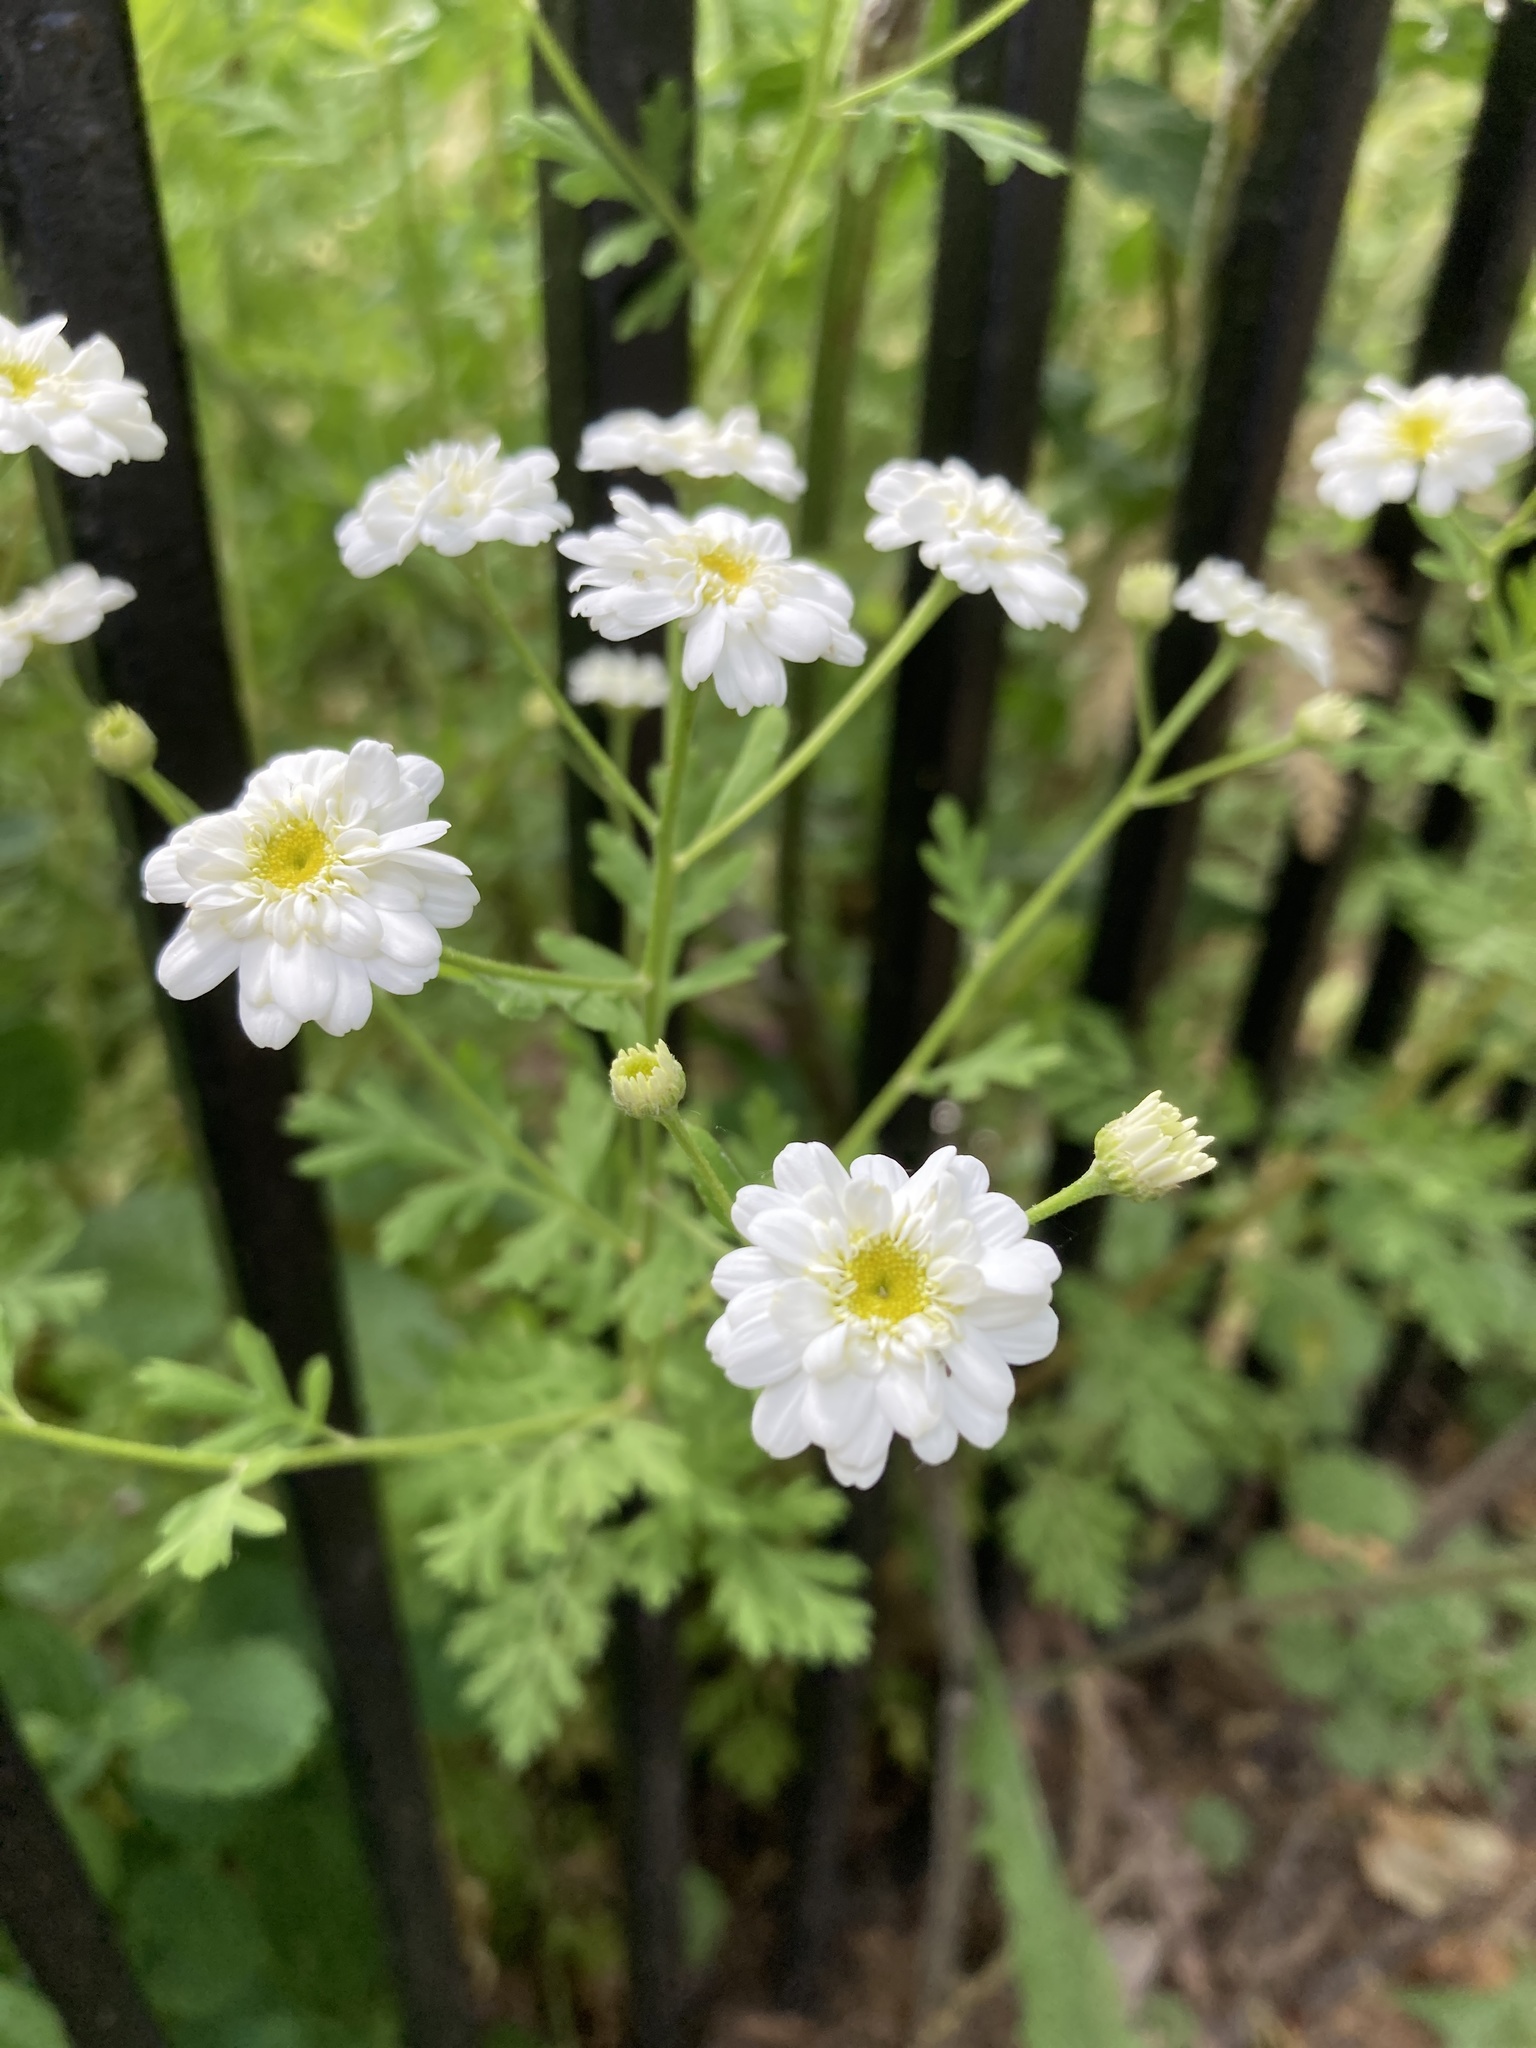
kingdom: Plantae
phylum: Tracheophyta
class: Magnoliopsida
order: Asterales
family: Asteraceae
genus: Tanacetum
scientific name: Tanacetum parthenium
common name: Feverfew
